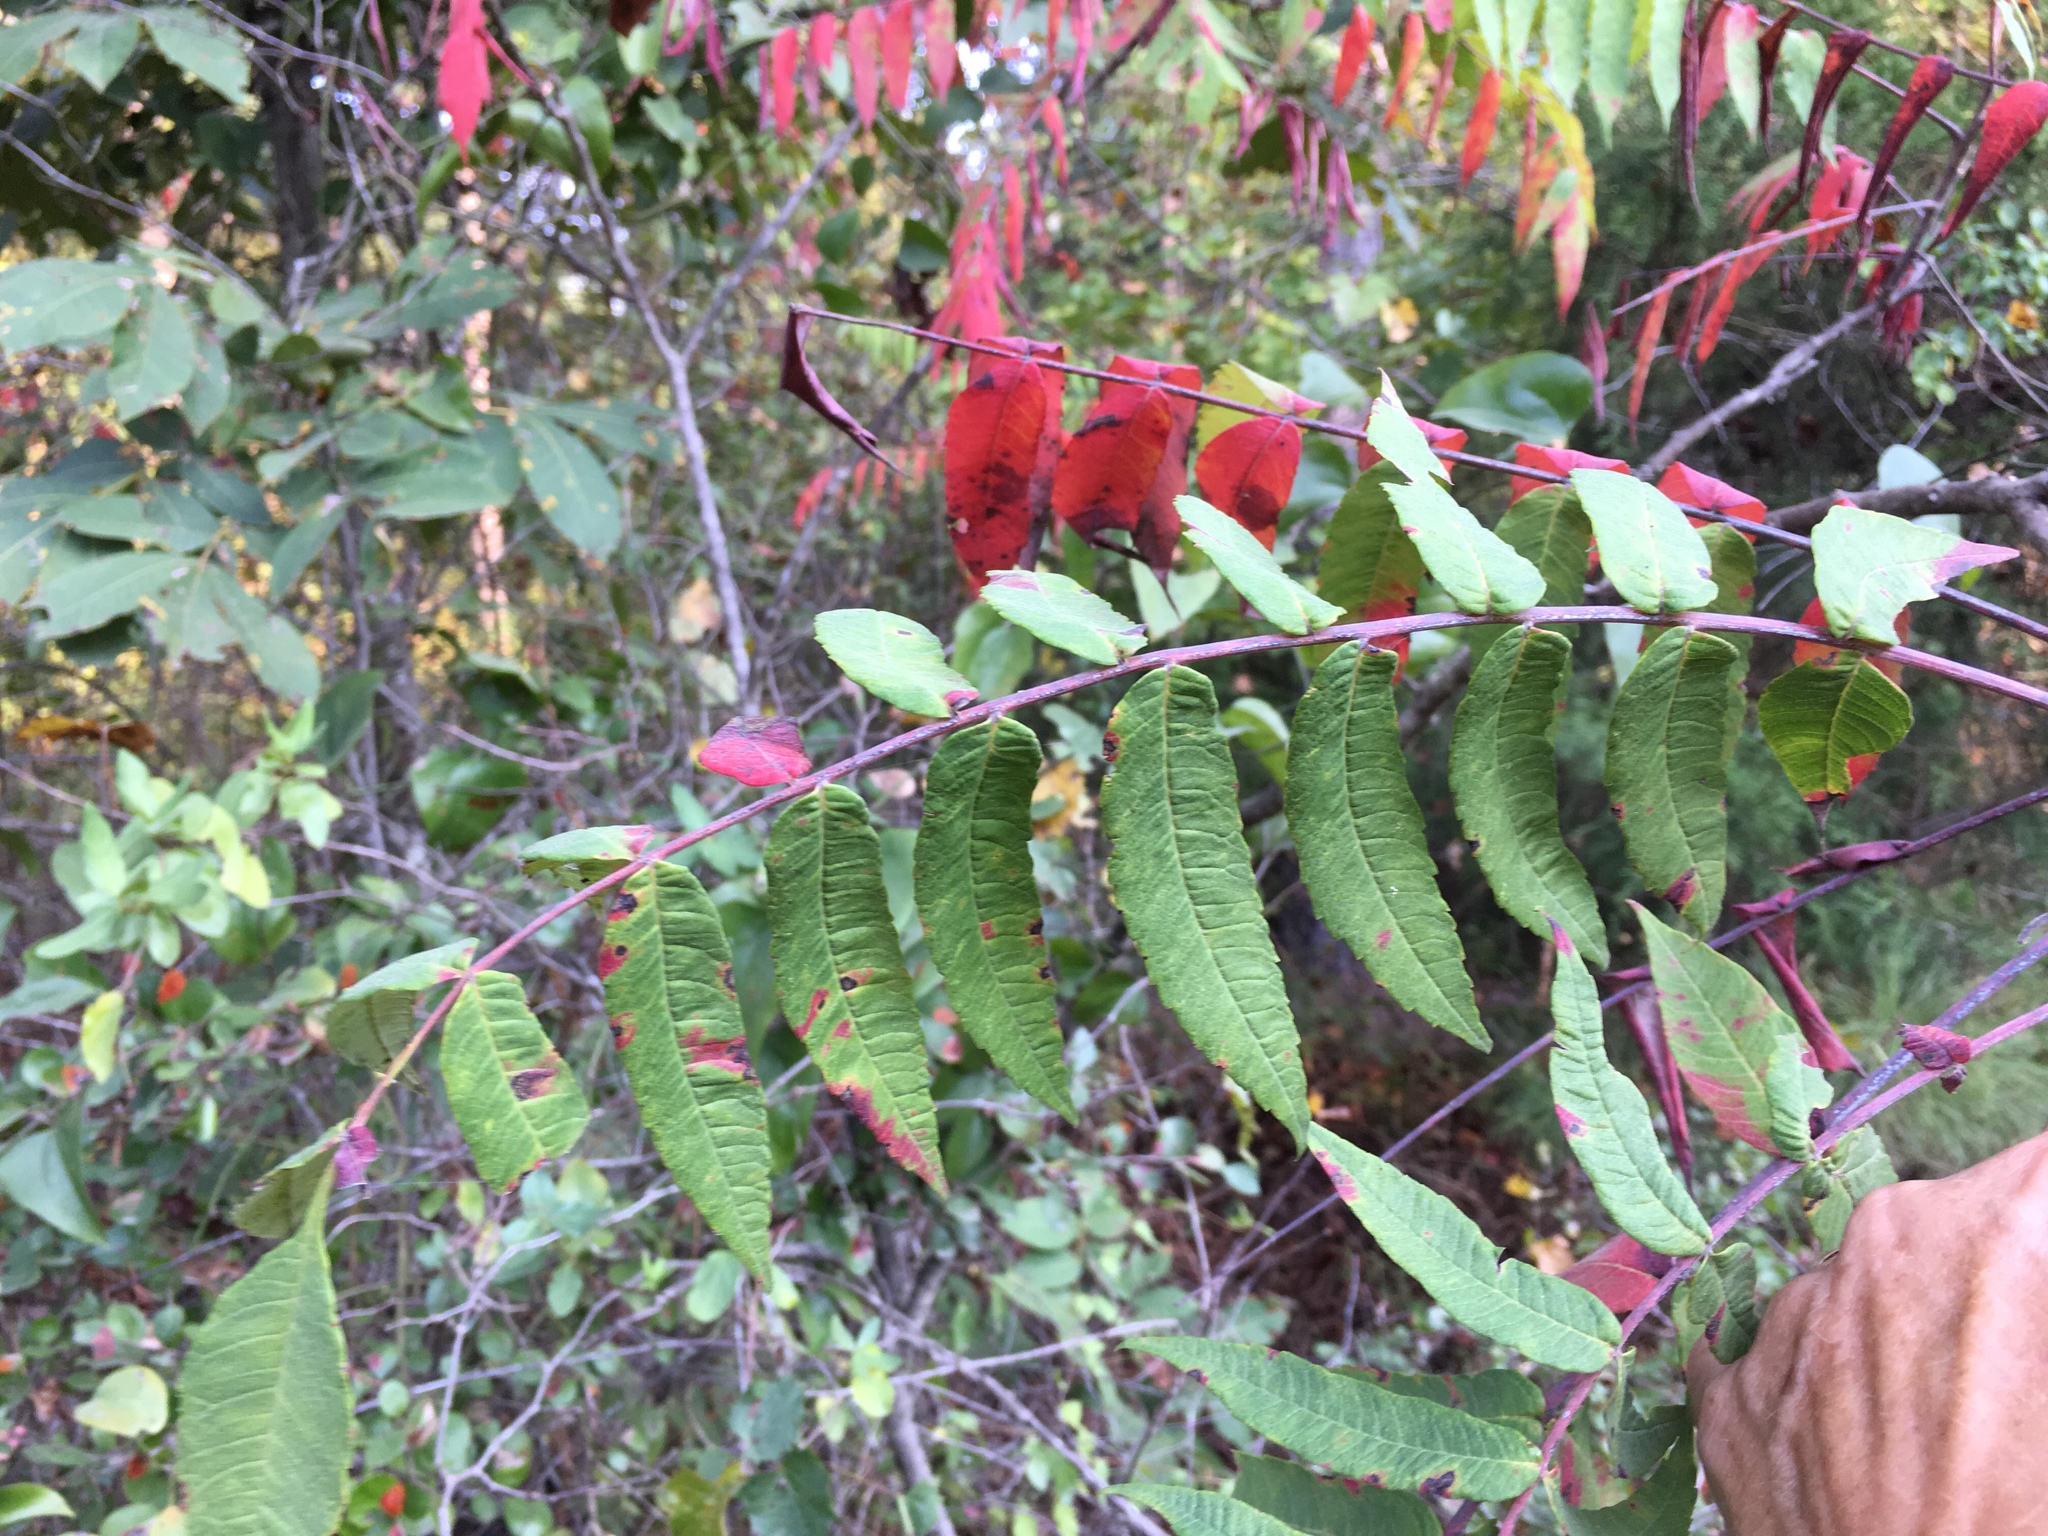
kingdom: Plantae
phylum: Tracheophyta
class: Magnoliopsida
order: Sapindales
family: Anacardiaceae
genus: Rhus
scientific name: Rhus glabra
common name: Scarlet sumac
